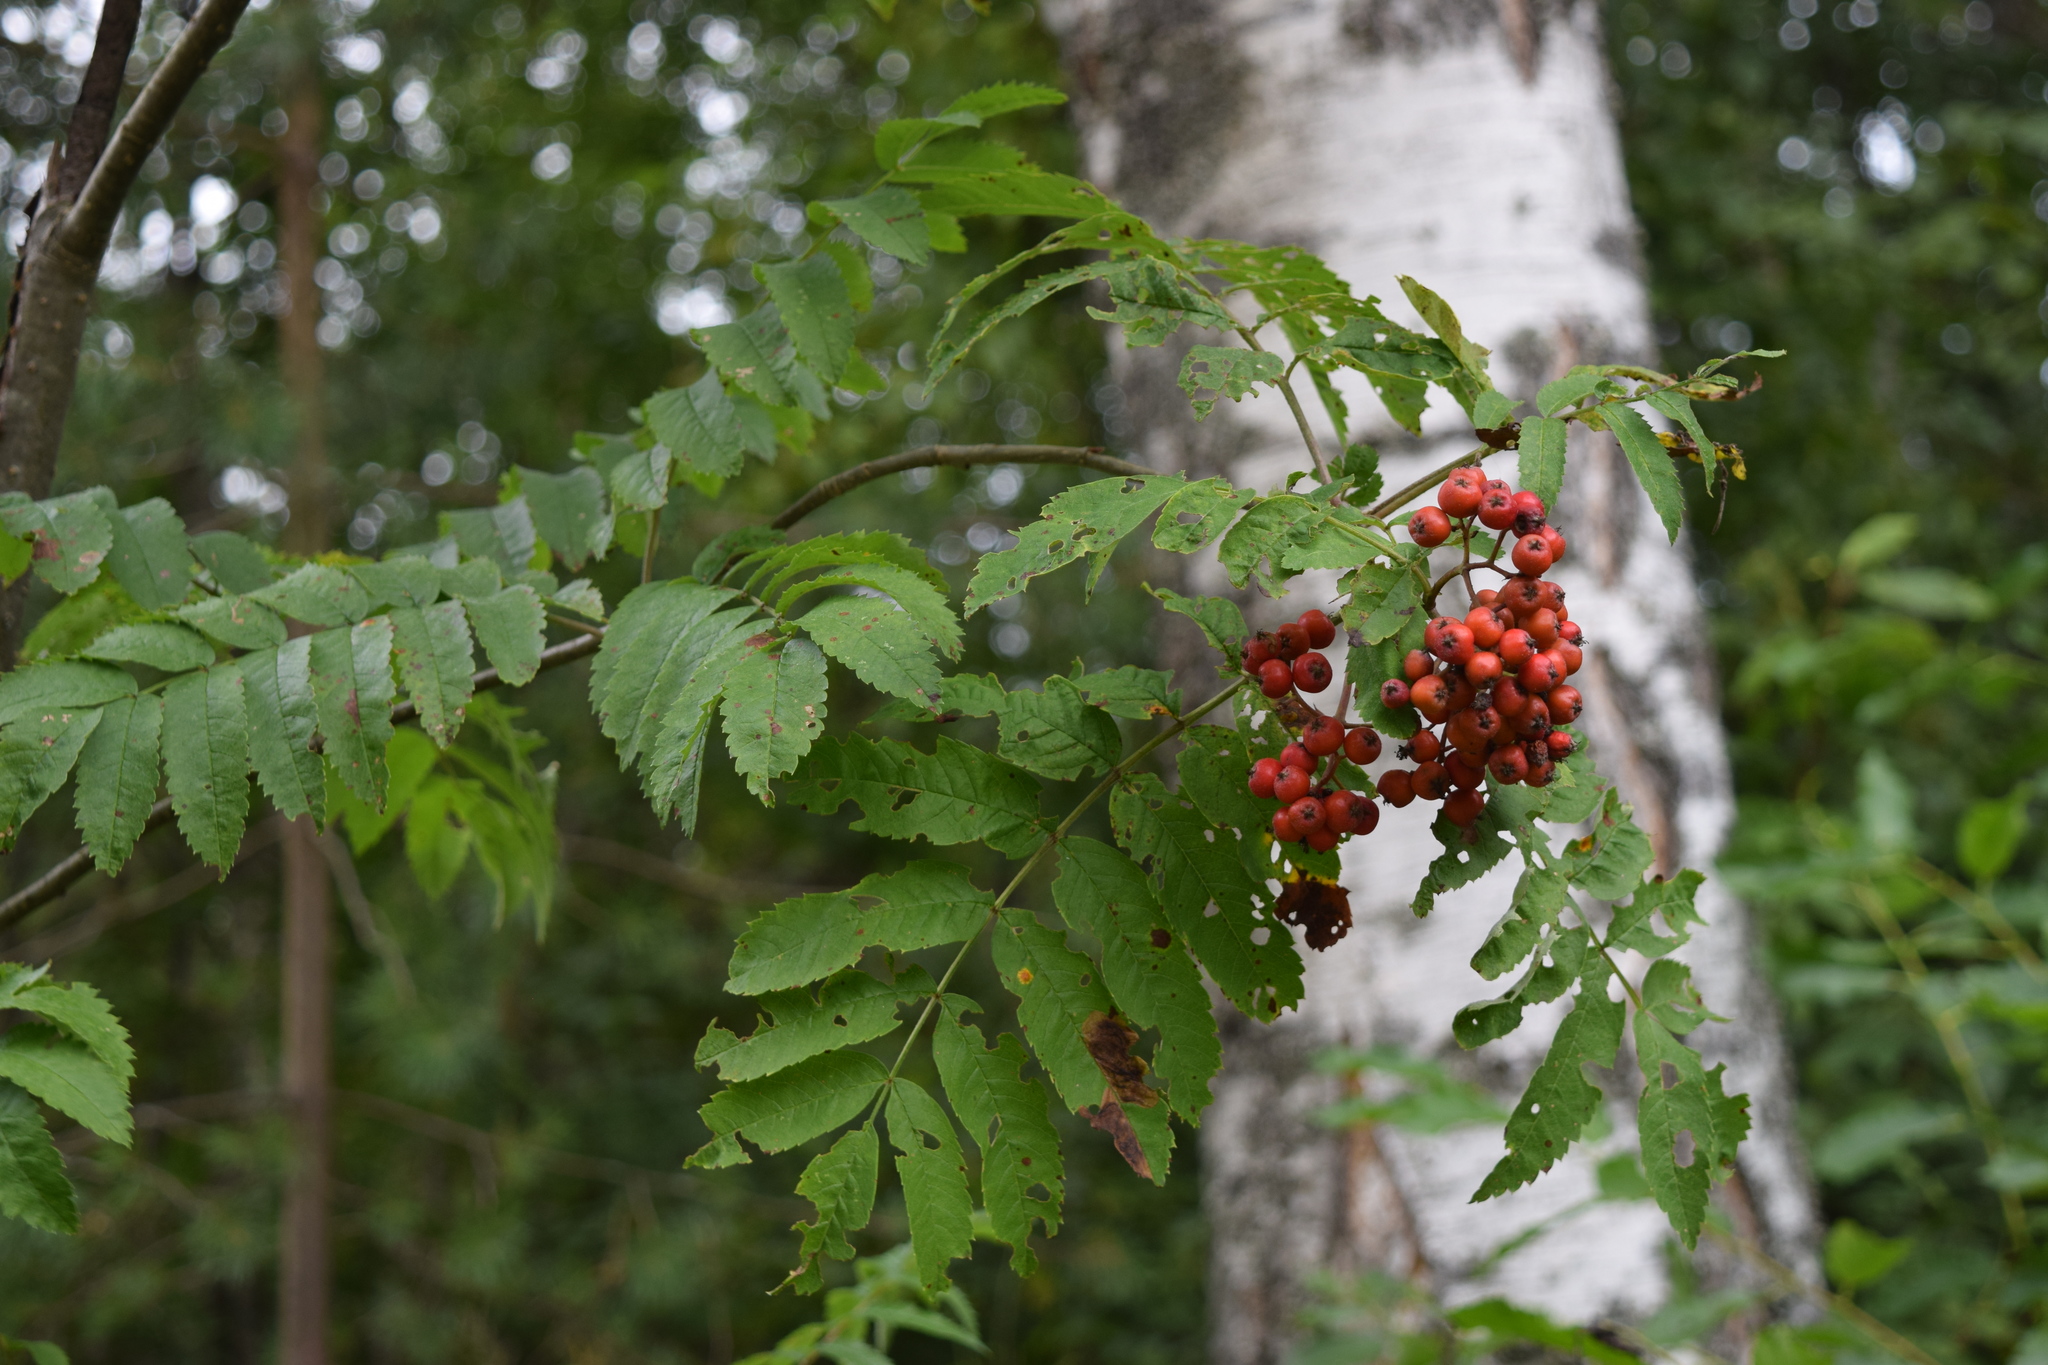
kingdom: Plantae
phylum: Tracheophyta
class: Magnoliopsida
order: Rosales
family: Rosaceae
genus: Sorbus
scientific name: Sorbus aucuparia
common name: Rowan
